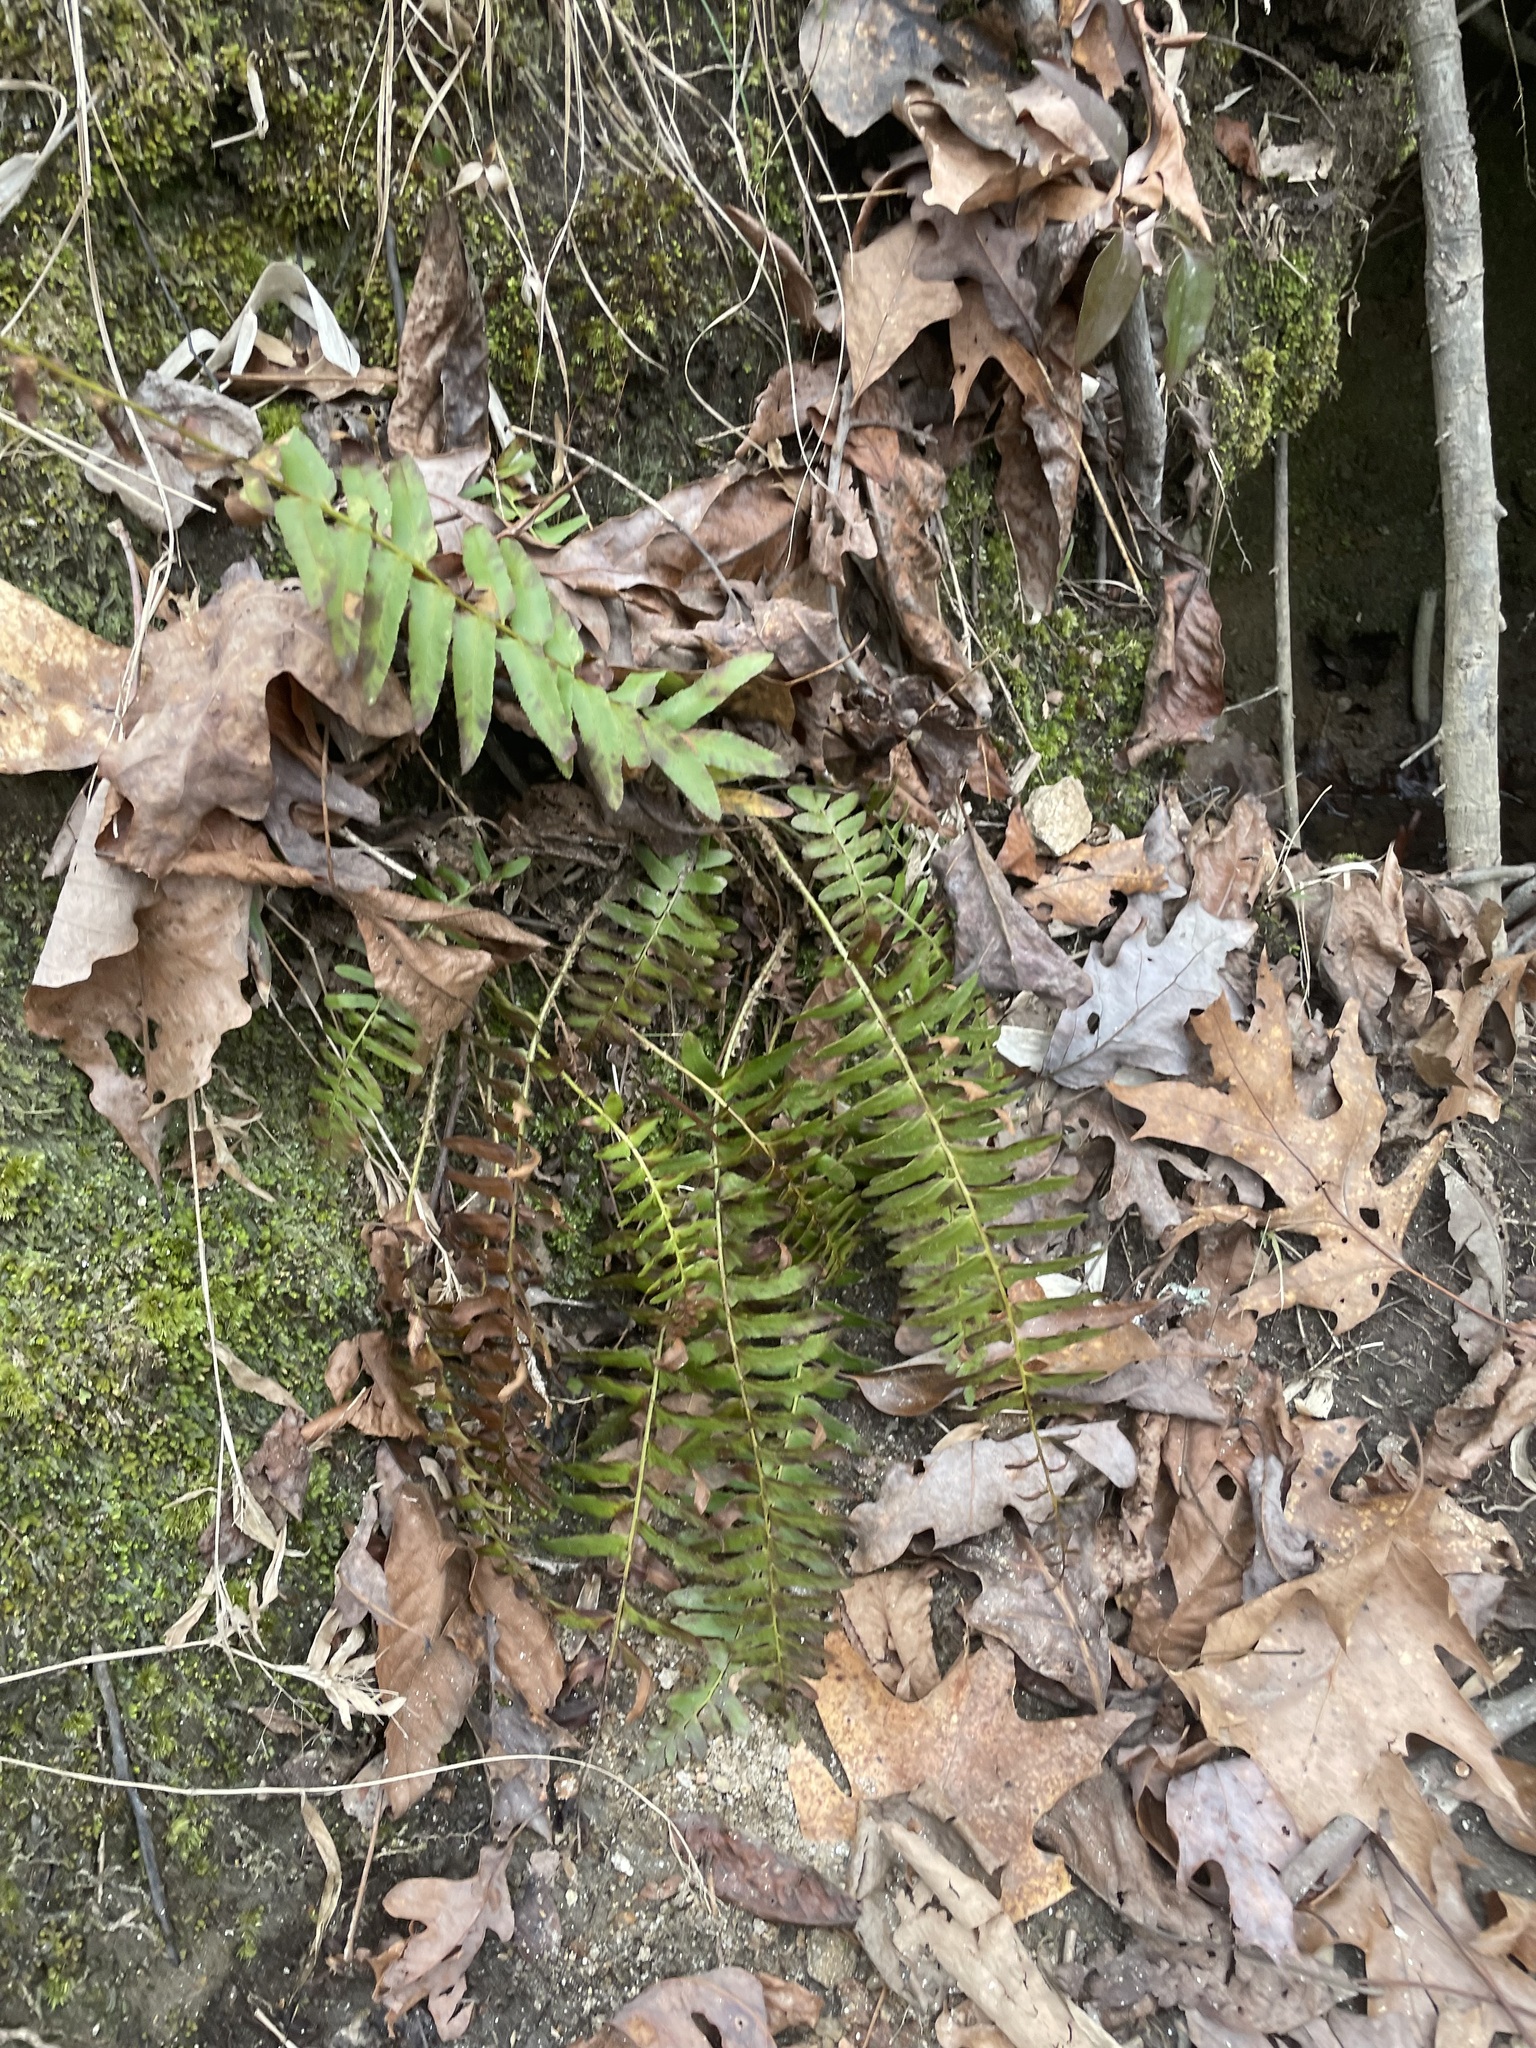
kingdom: Plantae
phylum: Tracheophyta
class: Polypodiopsida
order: Polypodiales
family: Dryopteridaceae
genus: Polystichum
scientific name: Polystichum acrostichoides
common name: Christmas fern
